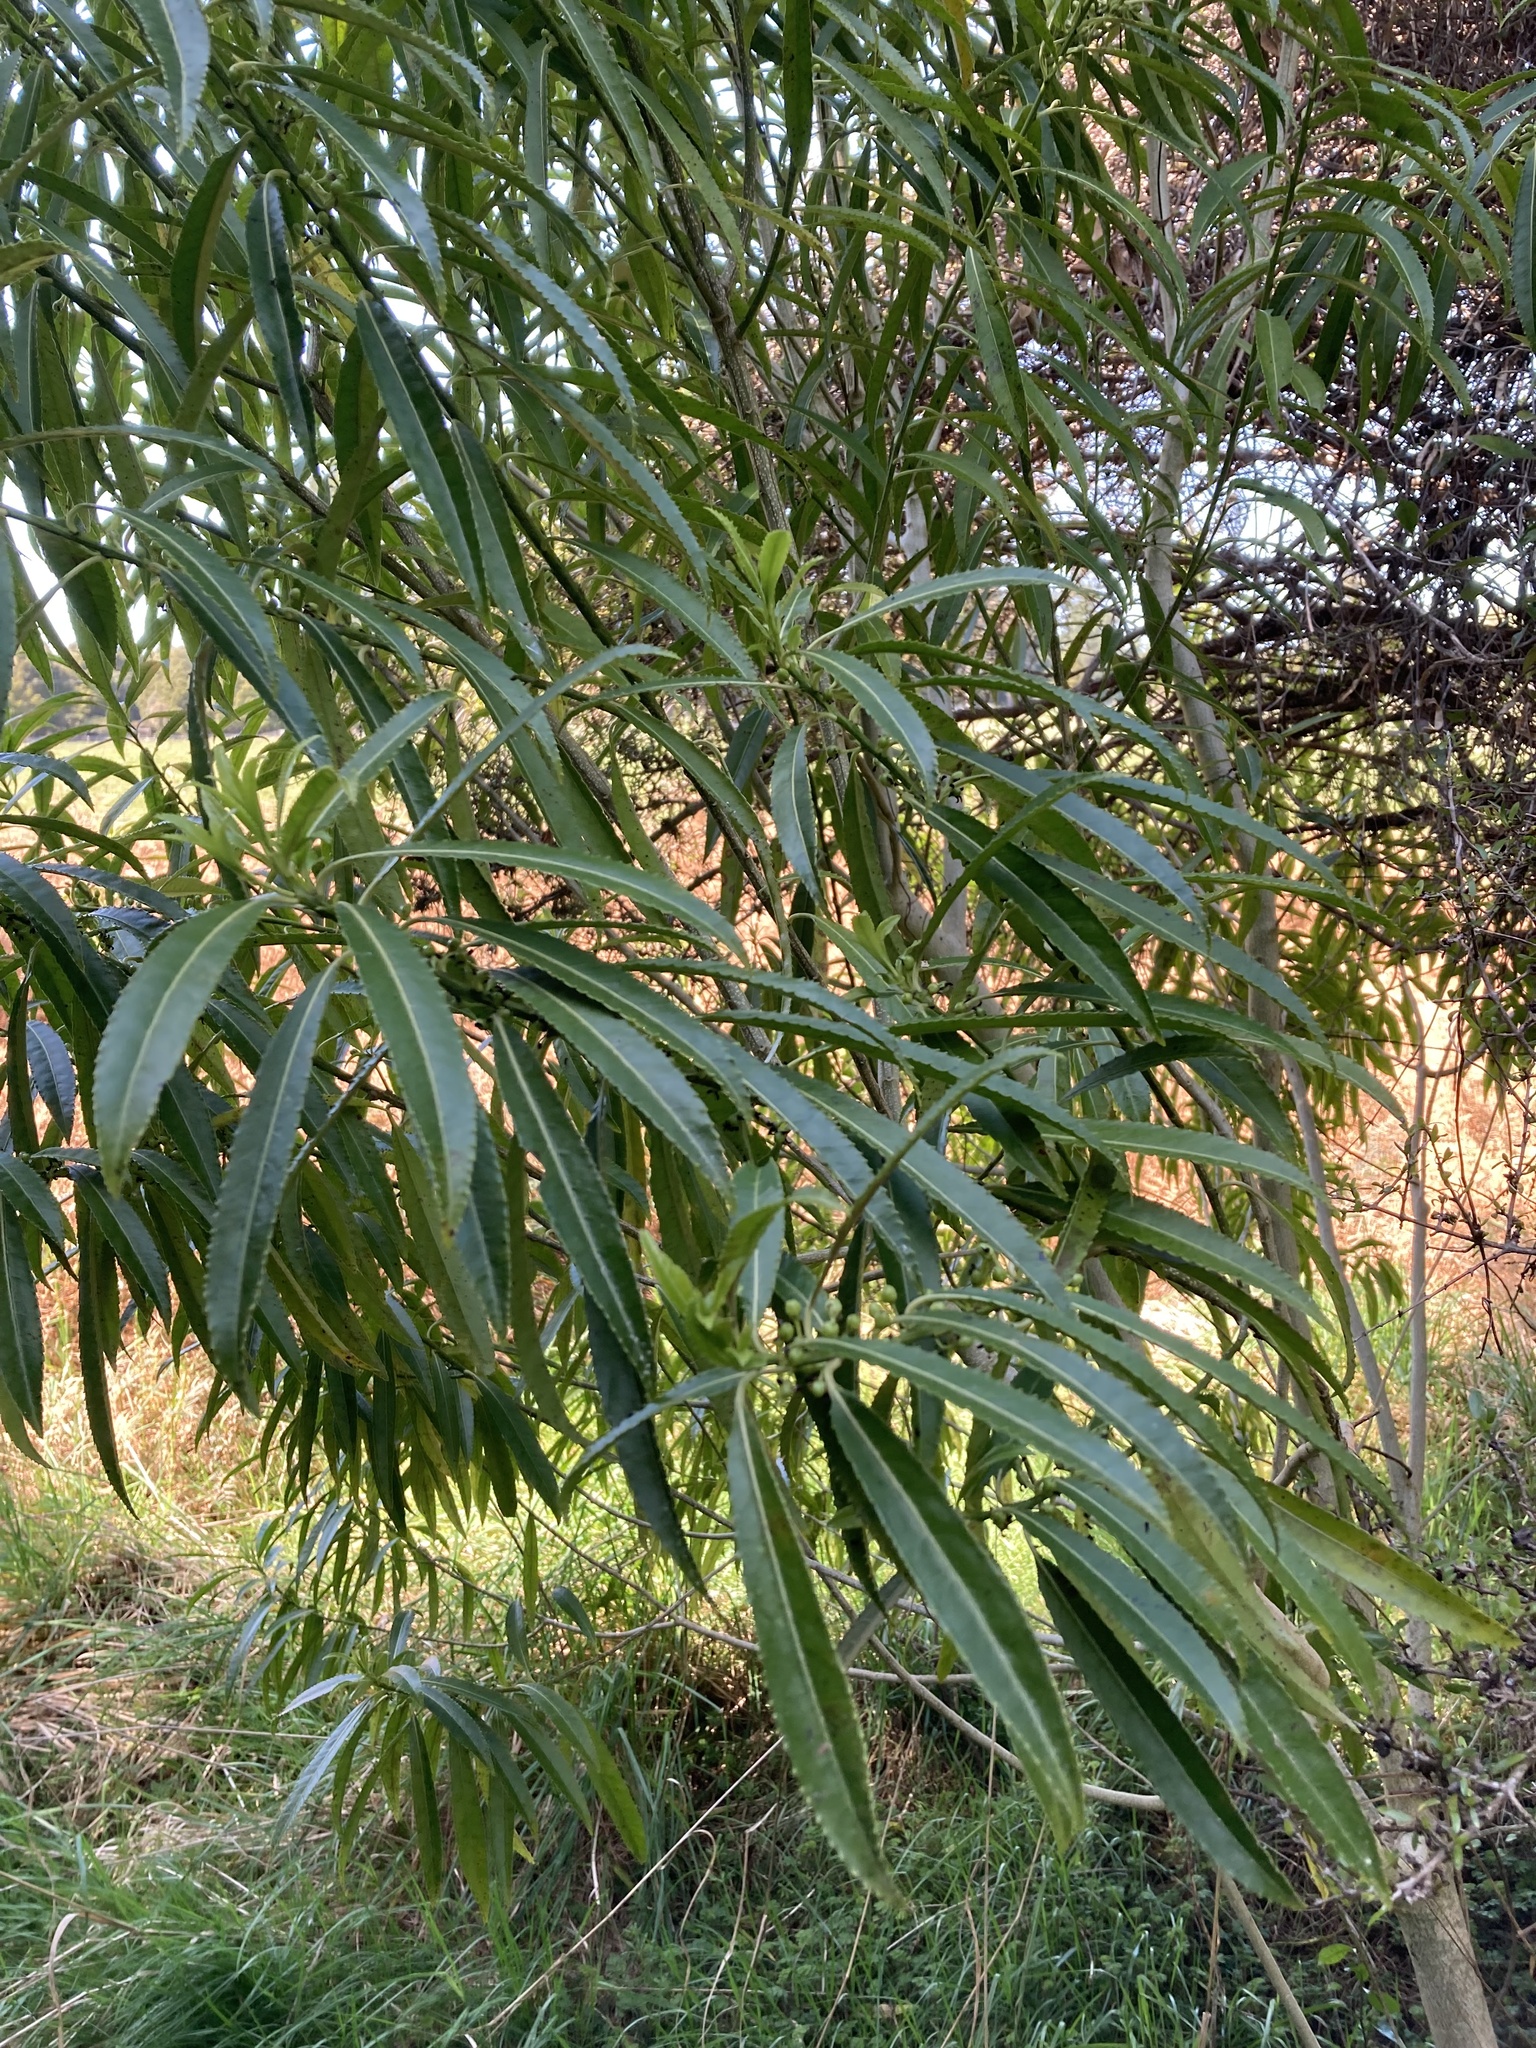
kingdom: Plantae
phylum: Tracheophyta
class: Magnoliopsida
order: Malpighiales
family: Violaceae
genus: Melicytus
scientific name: Melicytus lanceolatus
